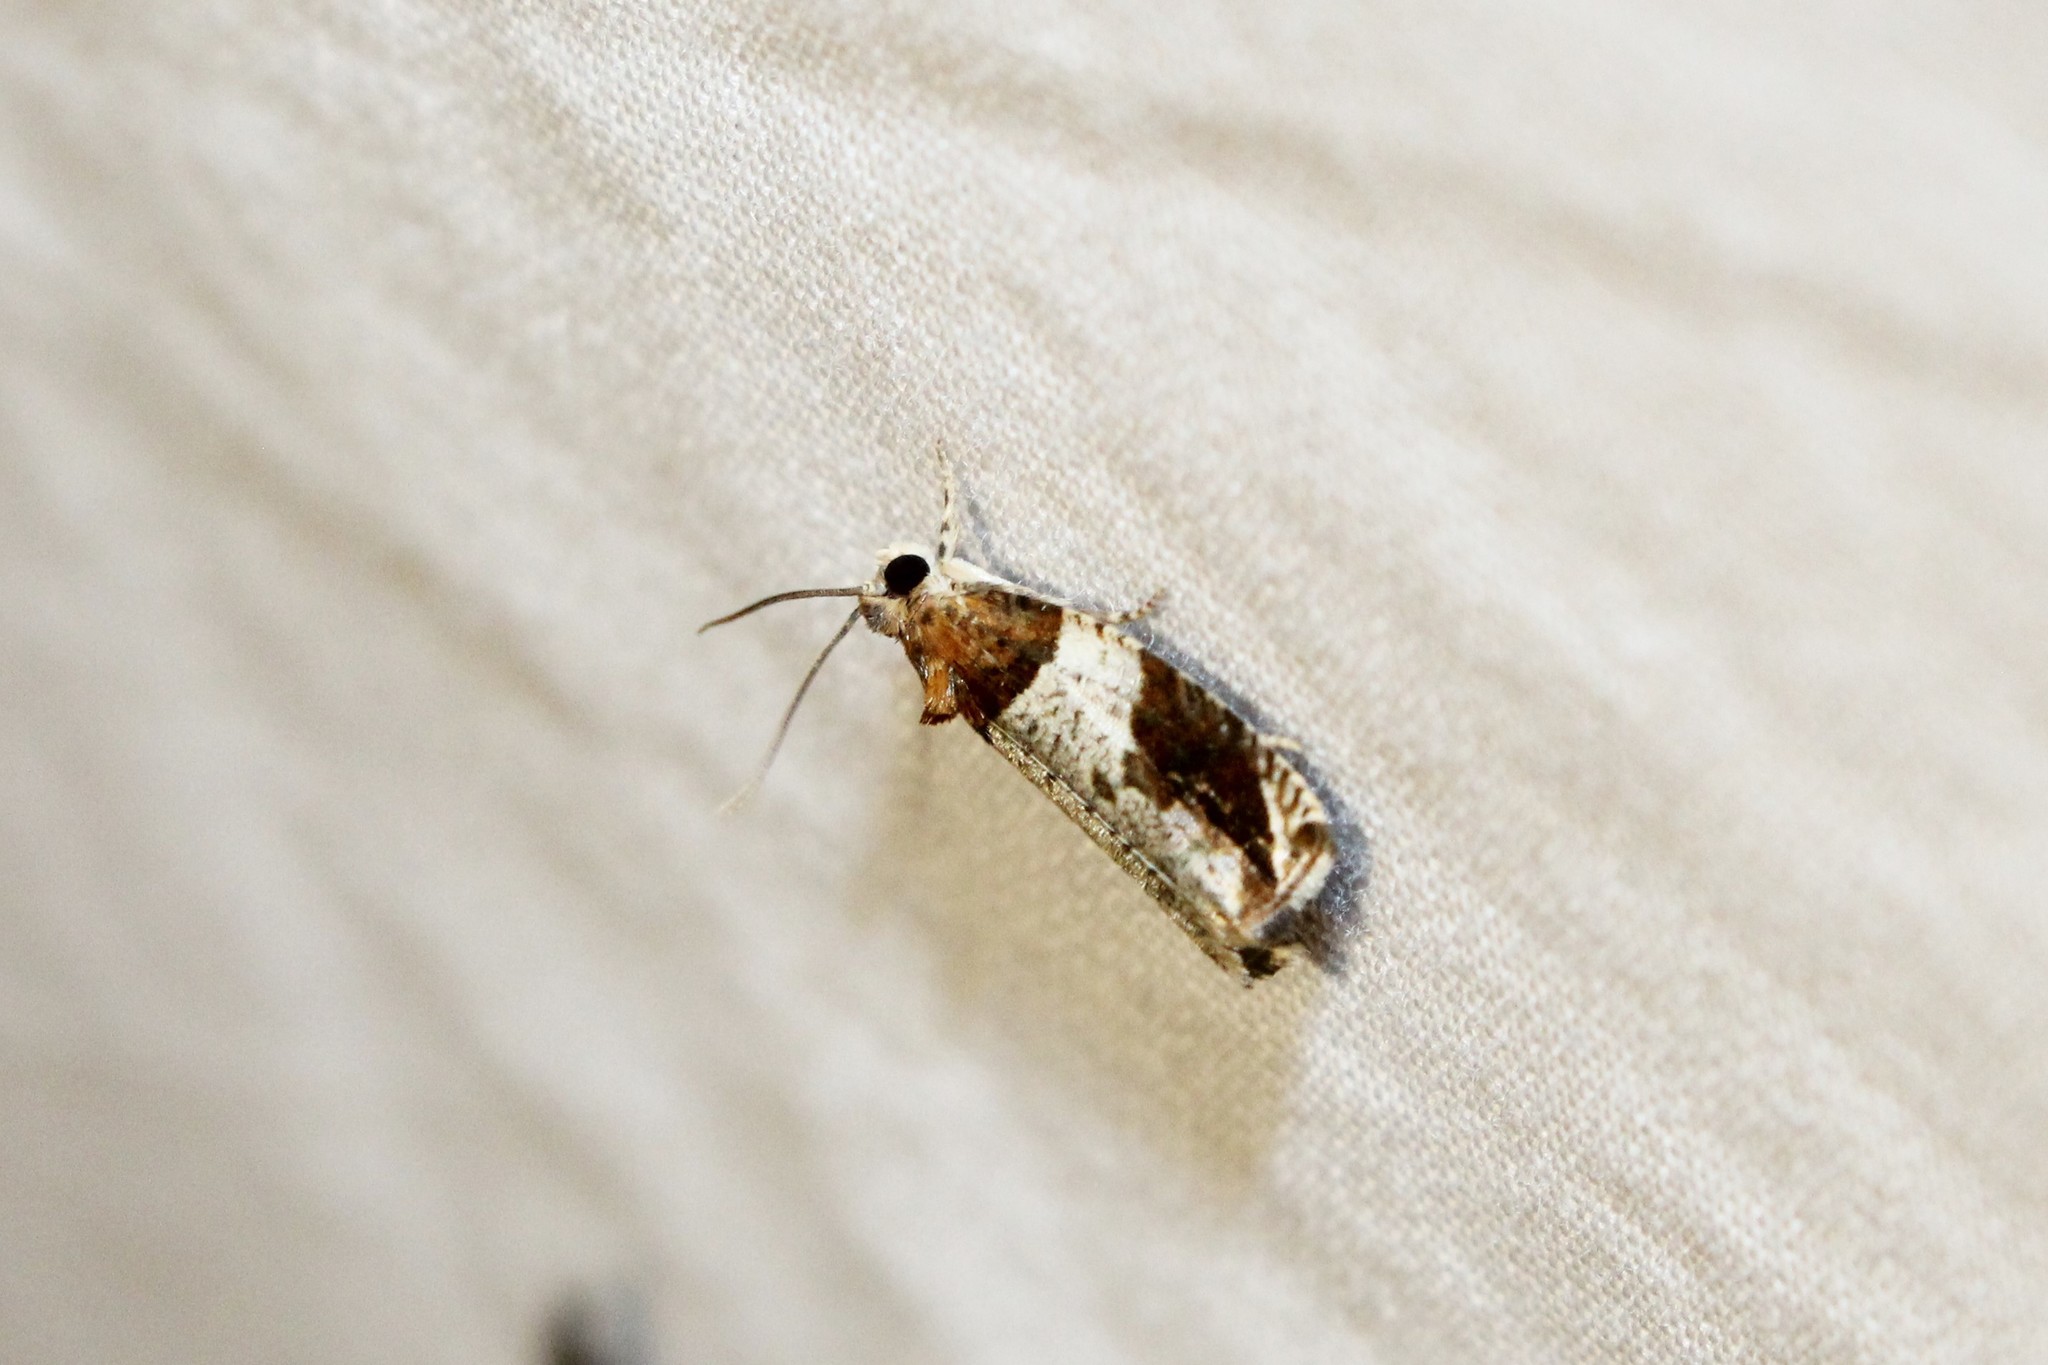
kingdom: Animalia
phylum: Arthropoda
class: Insecta
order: Lepidoptera
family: Tortricidae
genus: Olethreutes
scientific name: Olethreutes ferriferana
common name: Hydrangea leaftier moth
